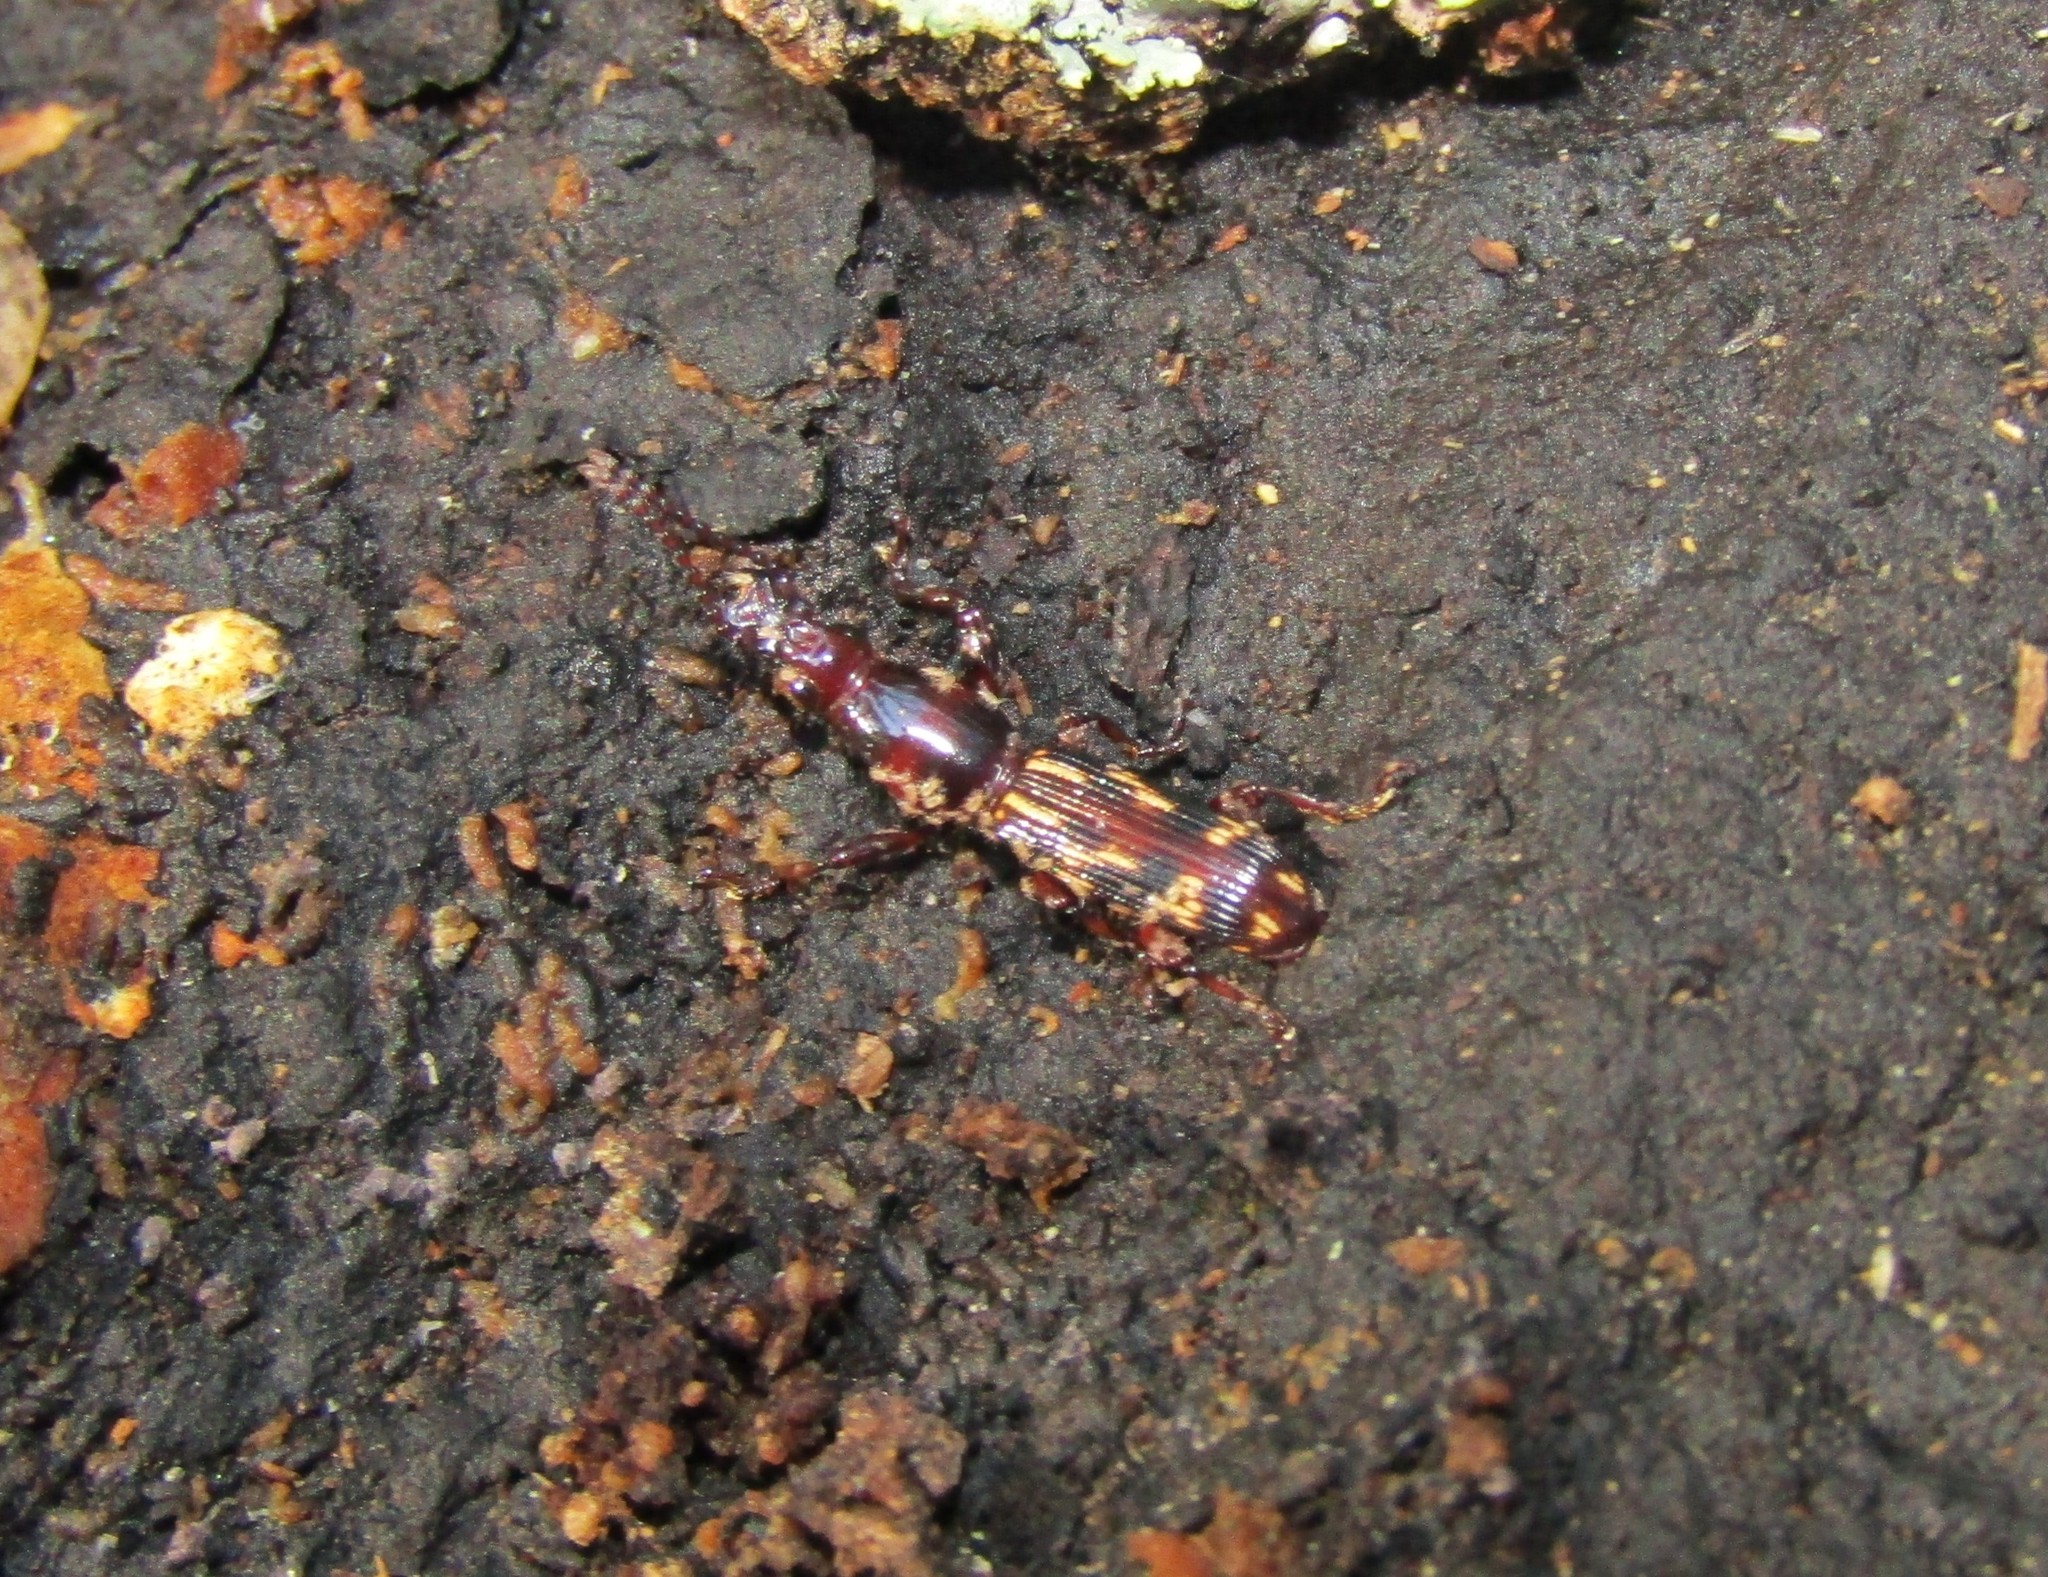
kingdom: Animalia
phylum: Arthropoda
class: Insecta
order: Coleoptera
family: Brentidae
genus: Arrenodes
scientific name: Arrenodes minutus
